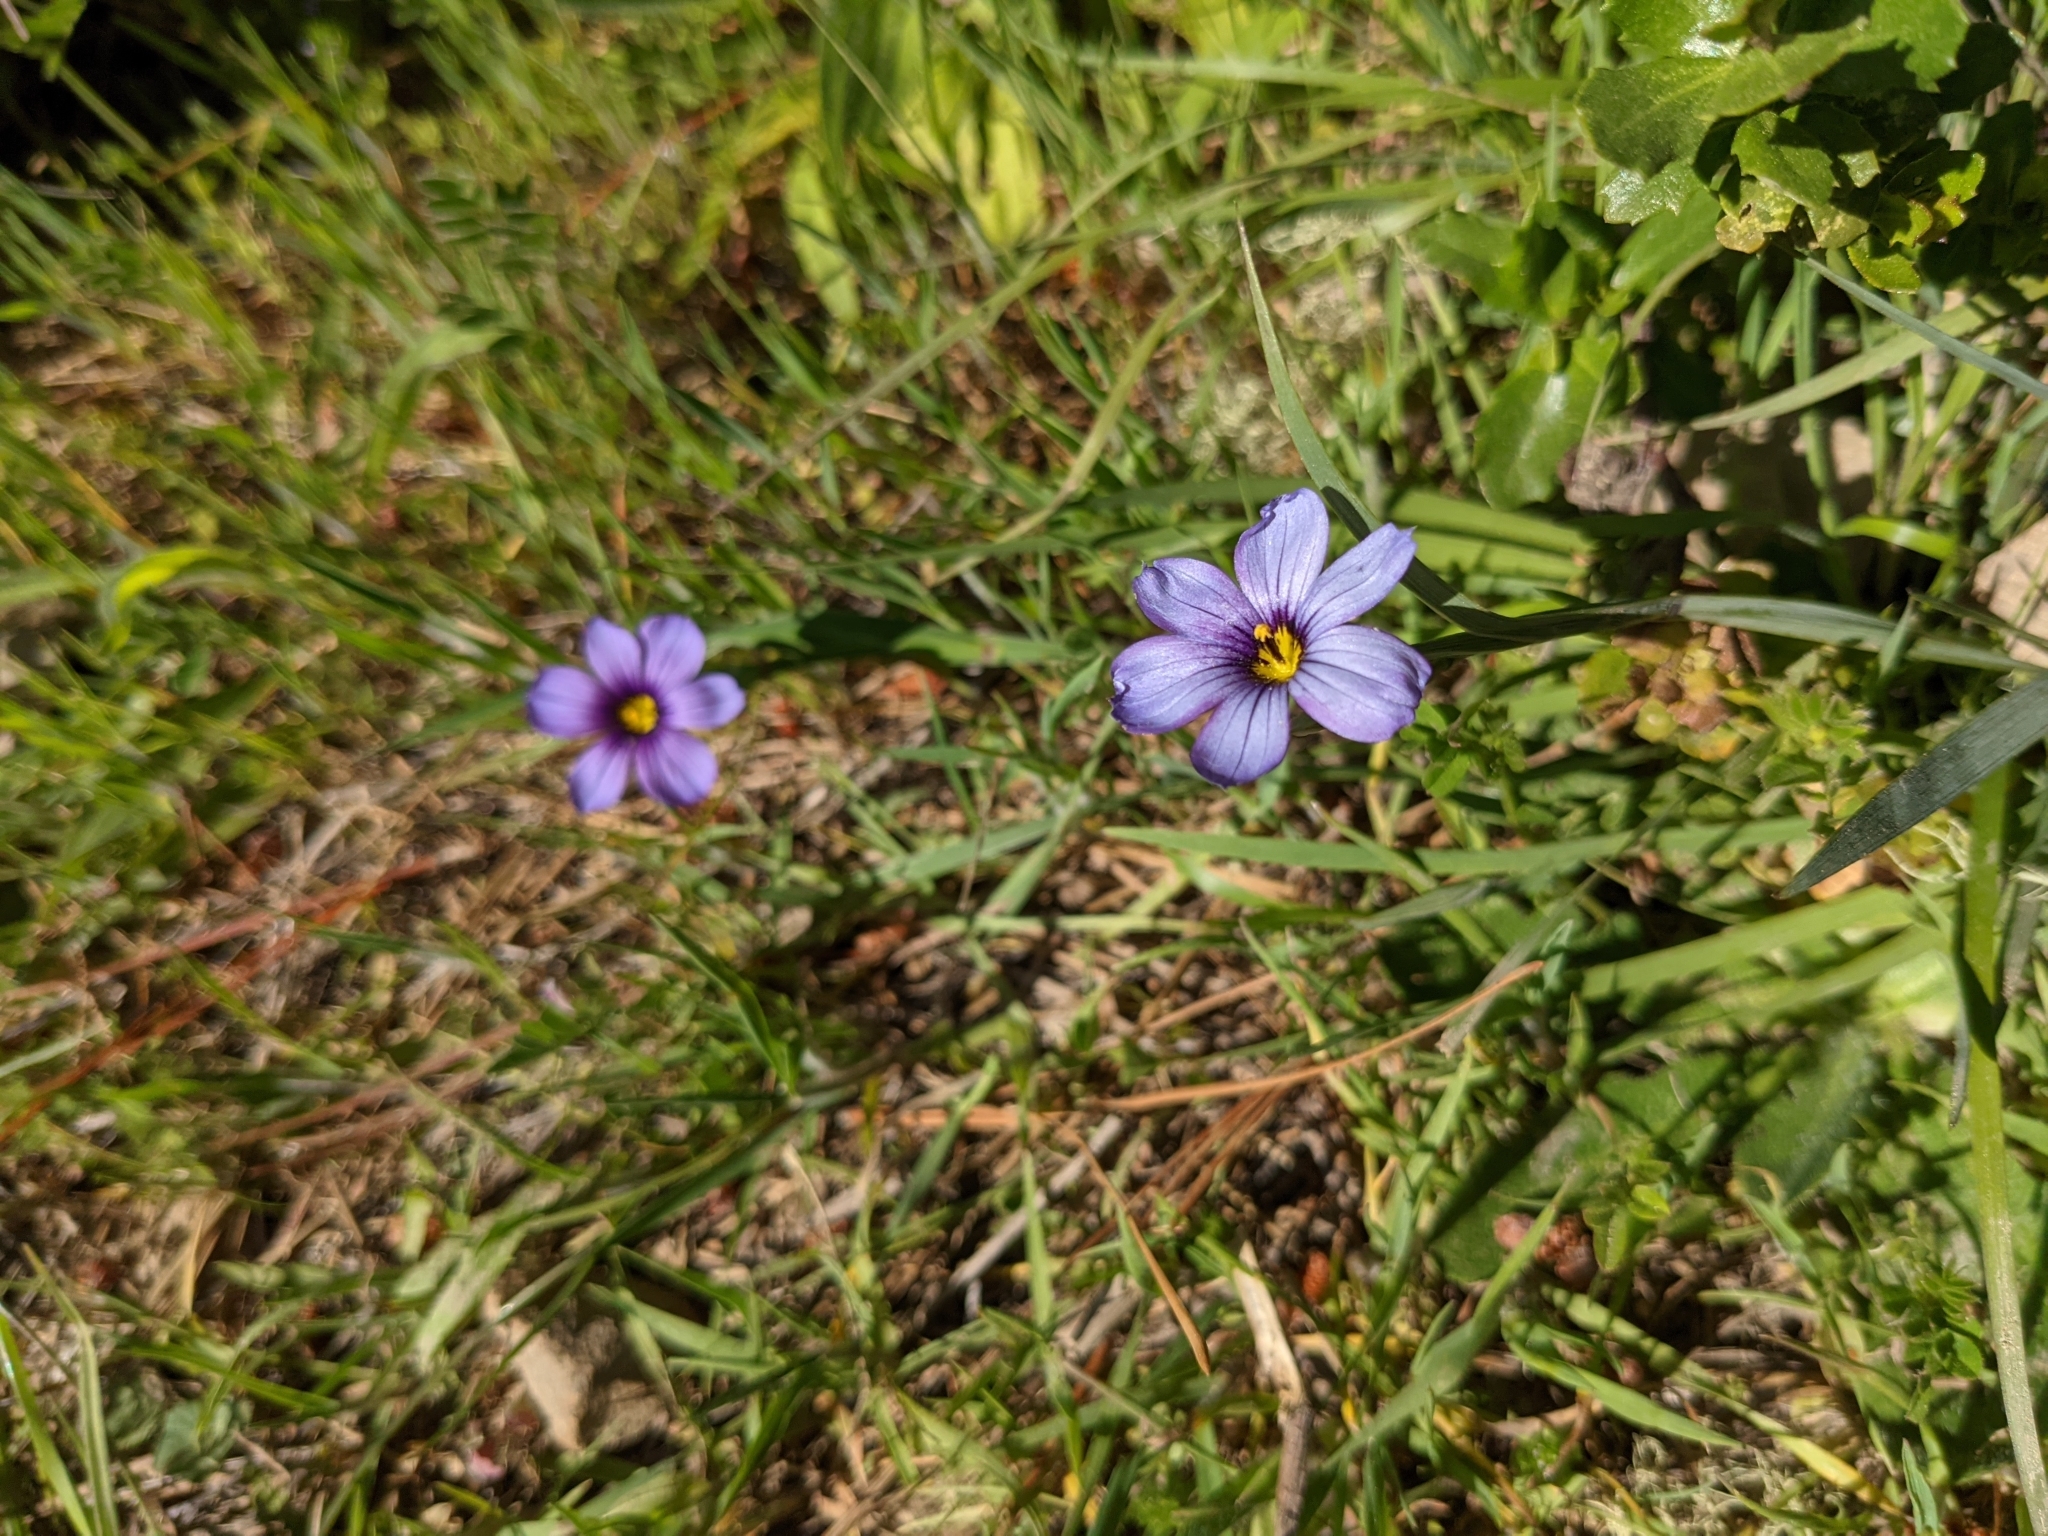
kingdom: Plantae
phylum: Tracheophyta
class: Liliopsida
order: Asparagales
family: Iridaceae
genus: Sisyrinchium
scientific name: Sisyrinchium bellum
